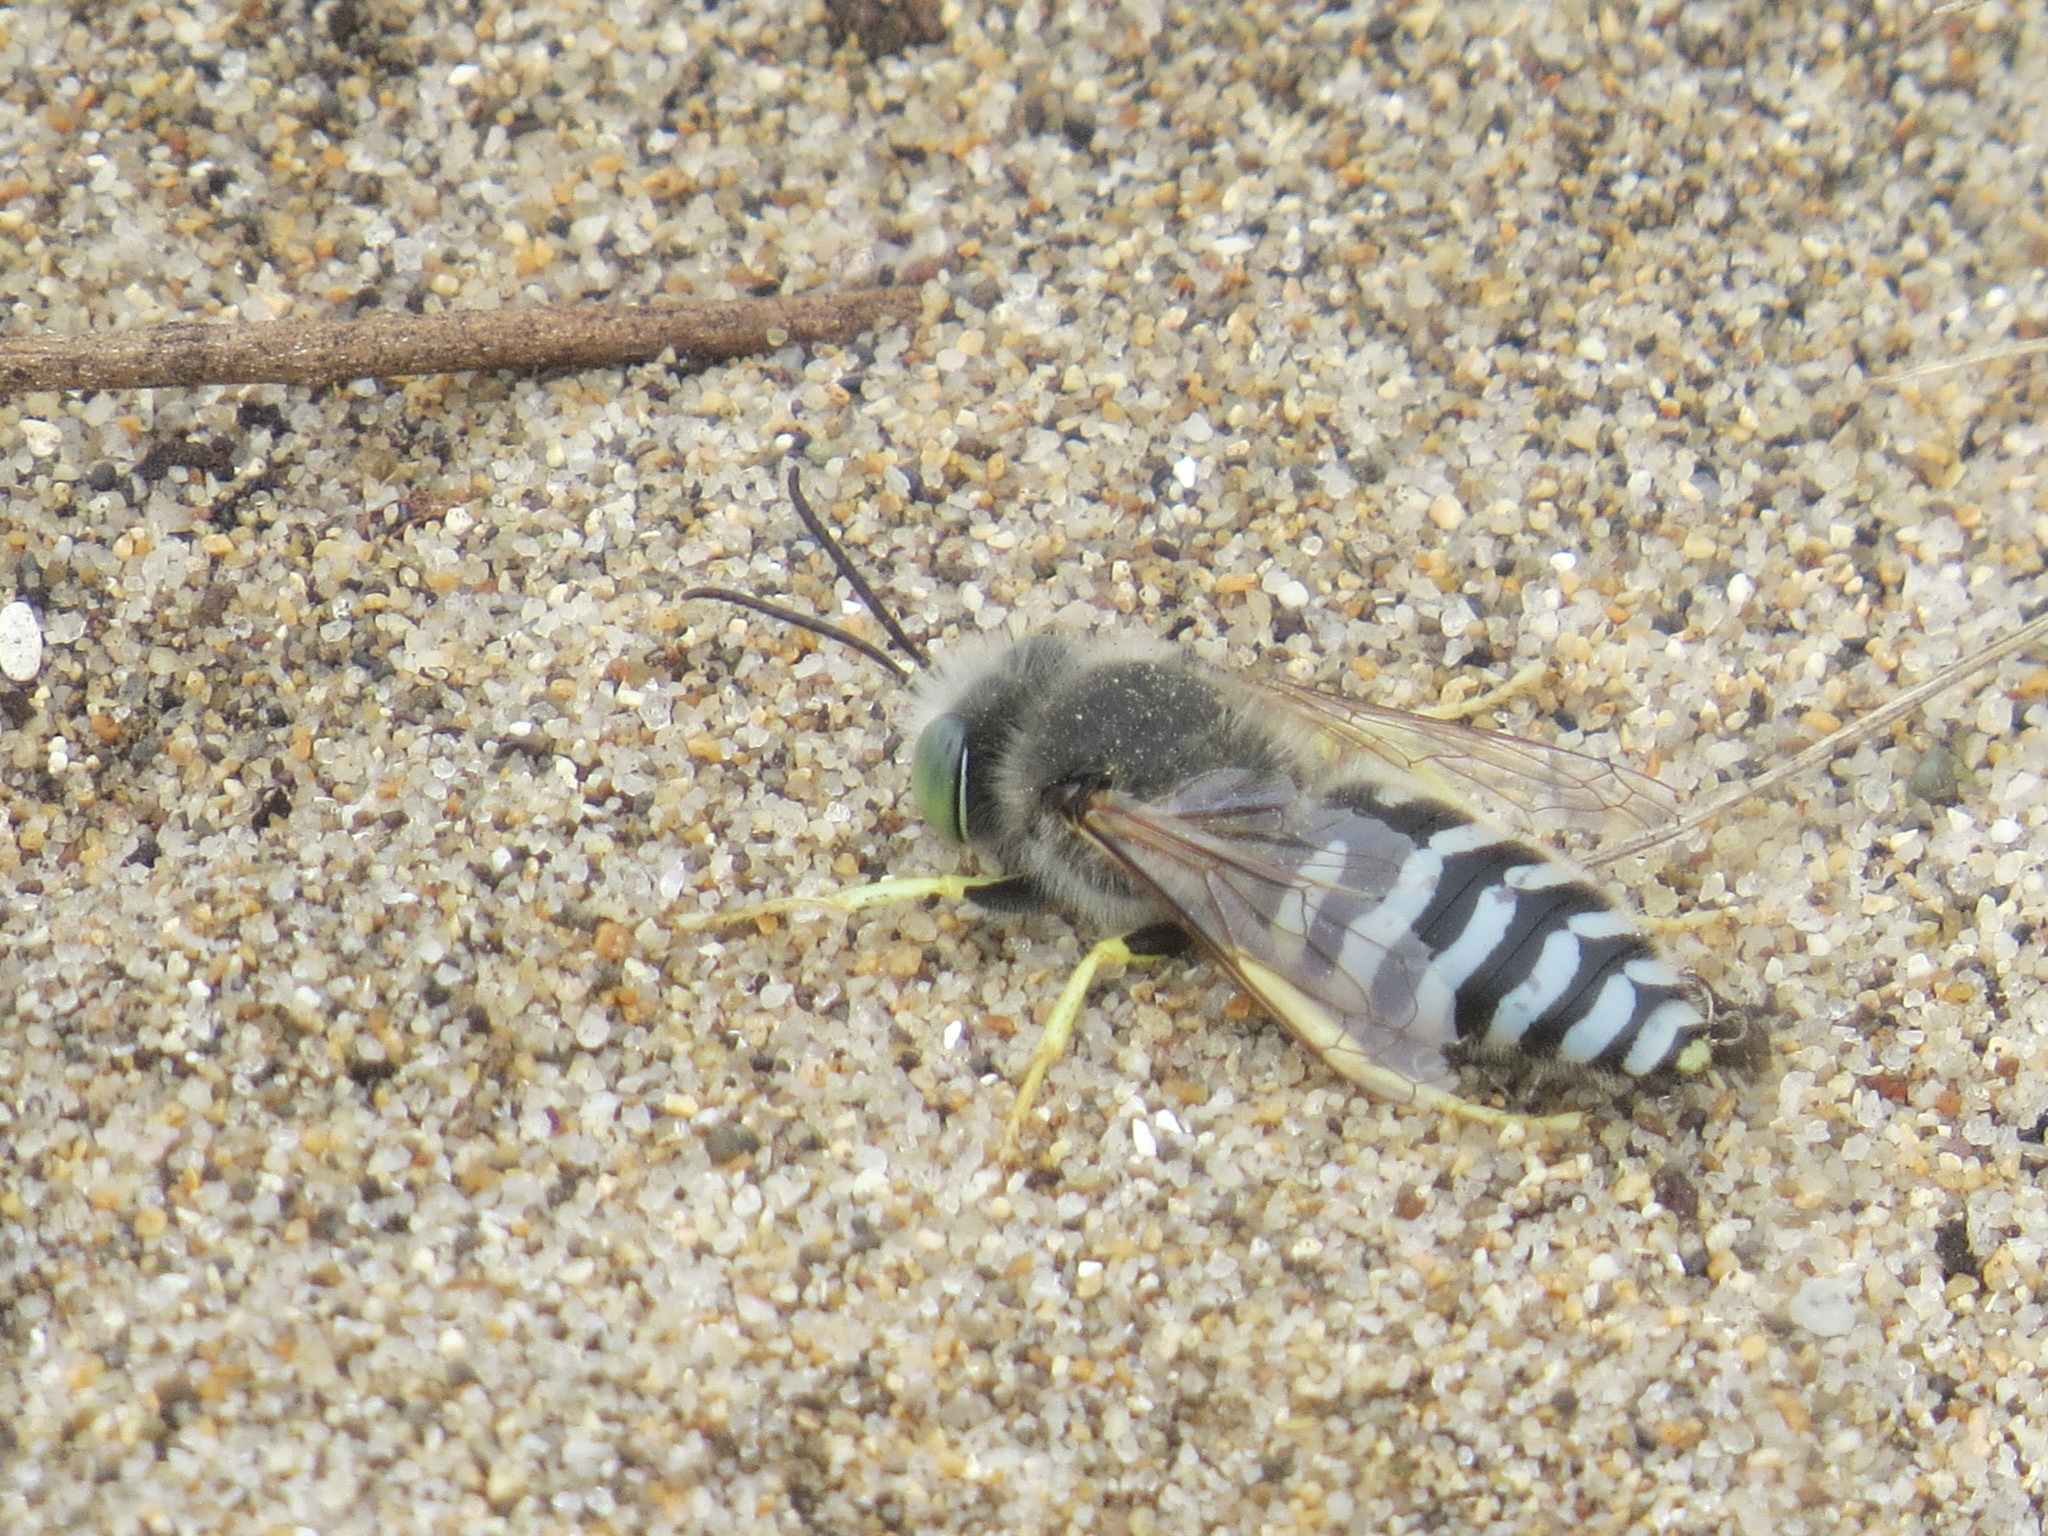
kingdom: Animalia
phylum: Arthropoda
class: Insecta
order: Hymenoptera
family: Crabronidae
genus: Bembix
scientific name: Bembix americana
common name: American sand wasp
